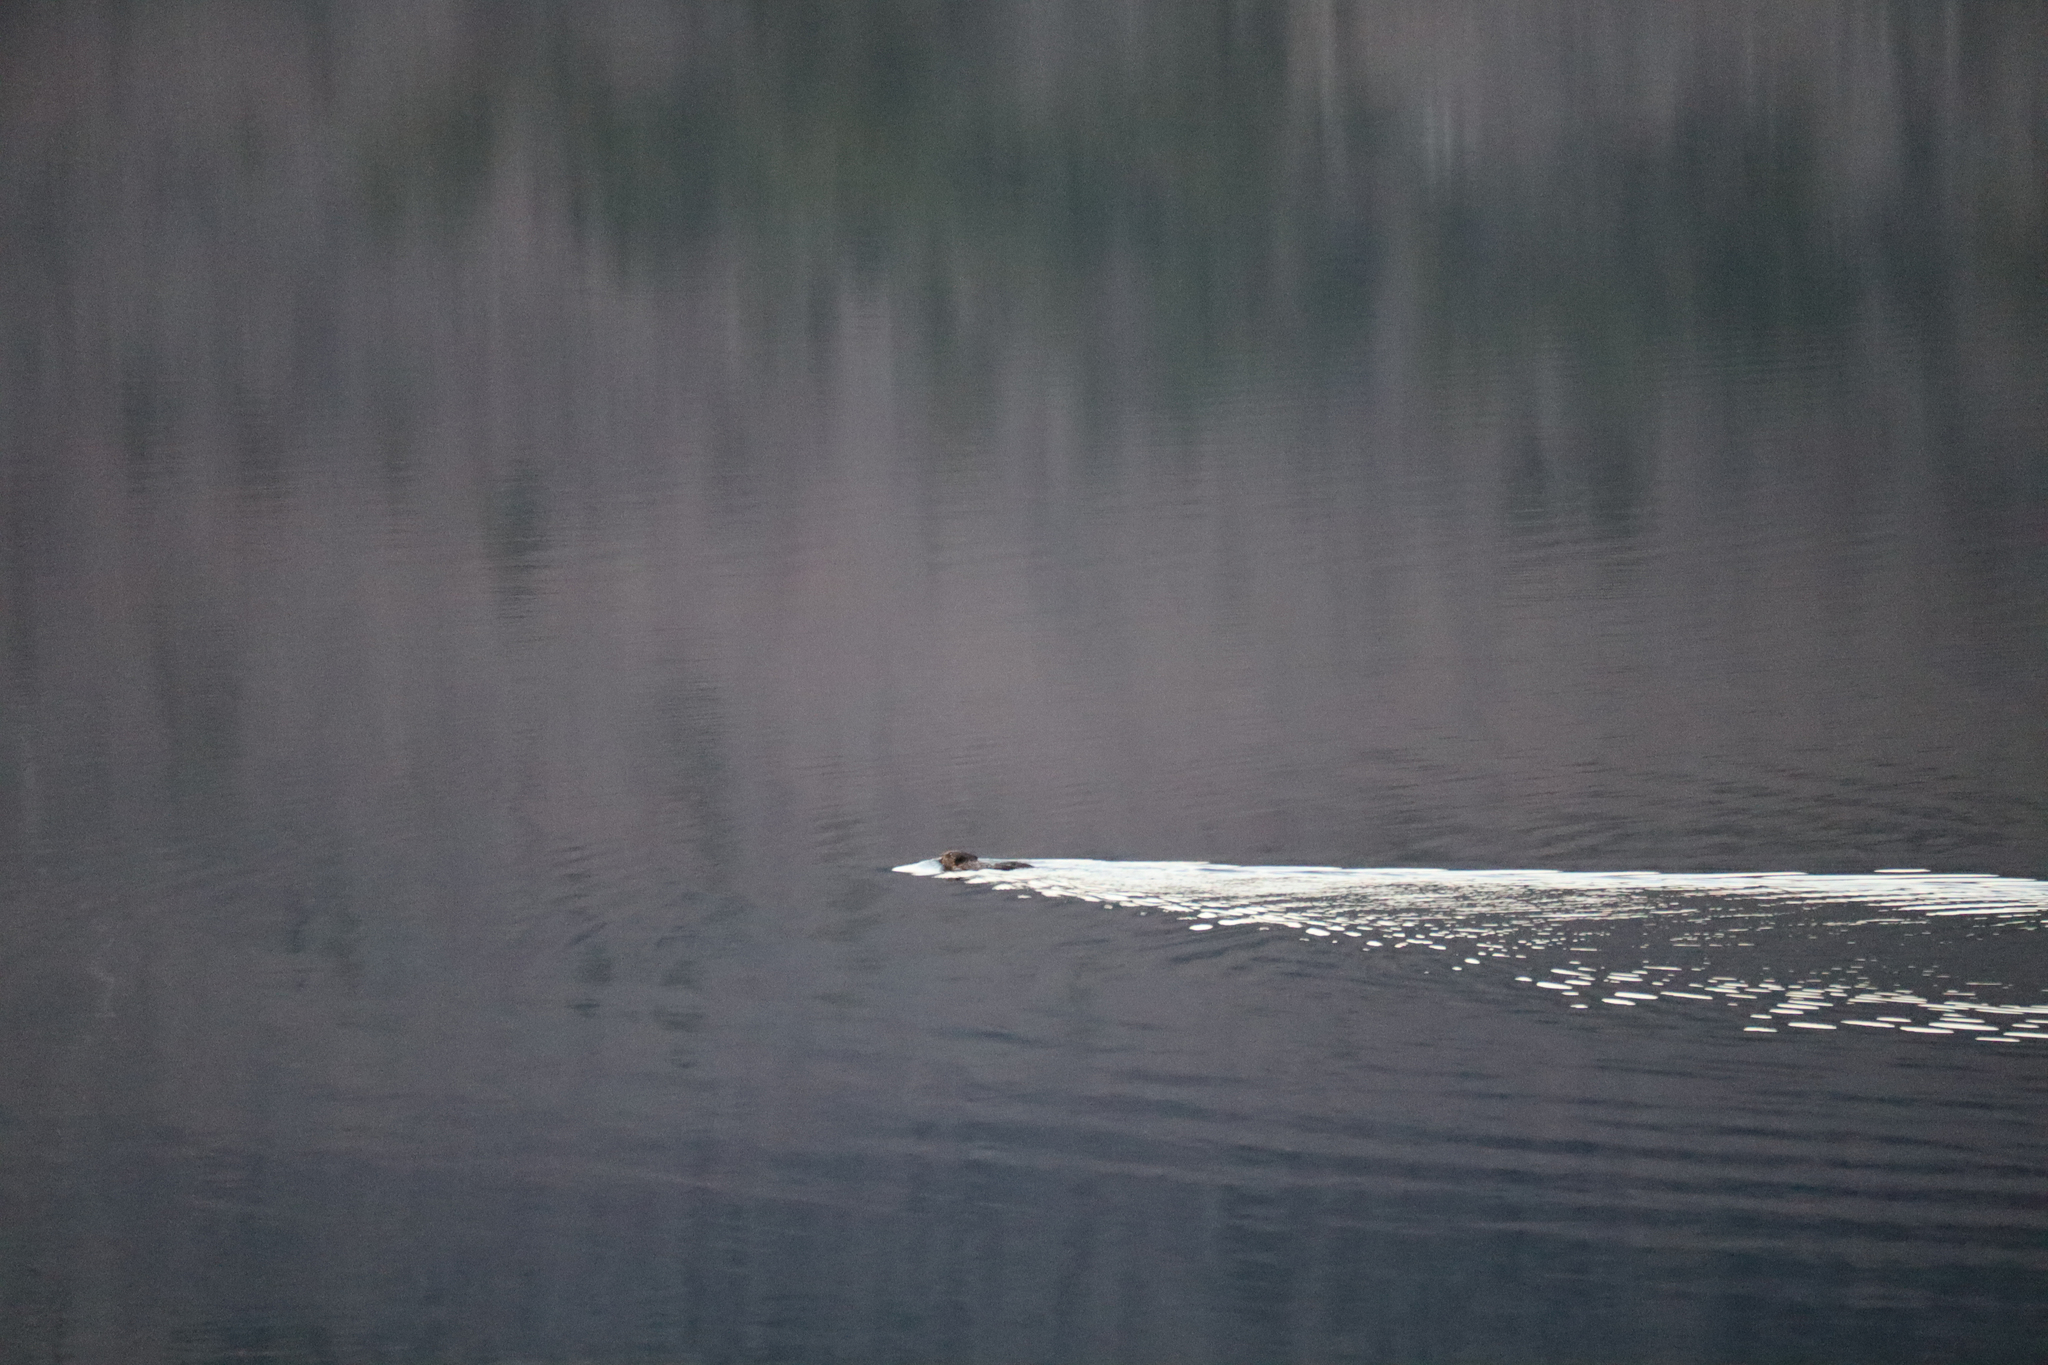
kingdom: Animalia
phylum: Chordata
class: Mammalia
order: Rodentia
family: Cricetidae
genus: Ondatra
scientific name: Ondatra zibethicus
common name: Muskrat
